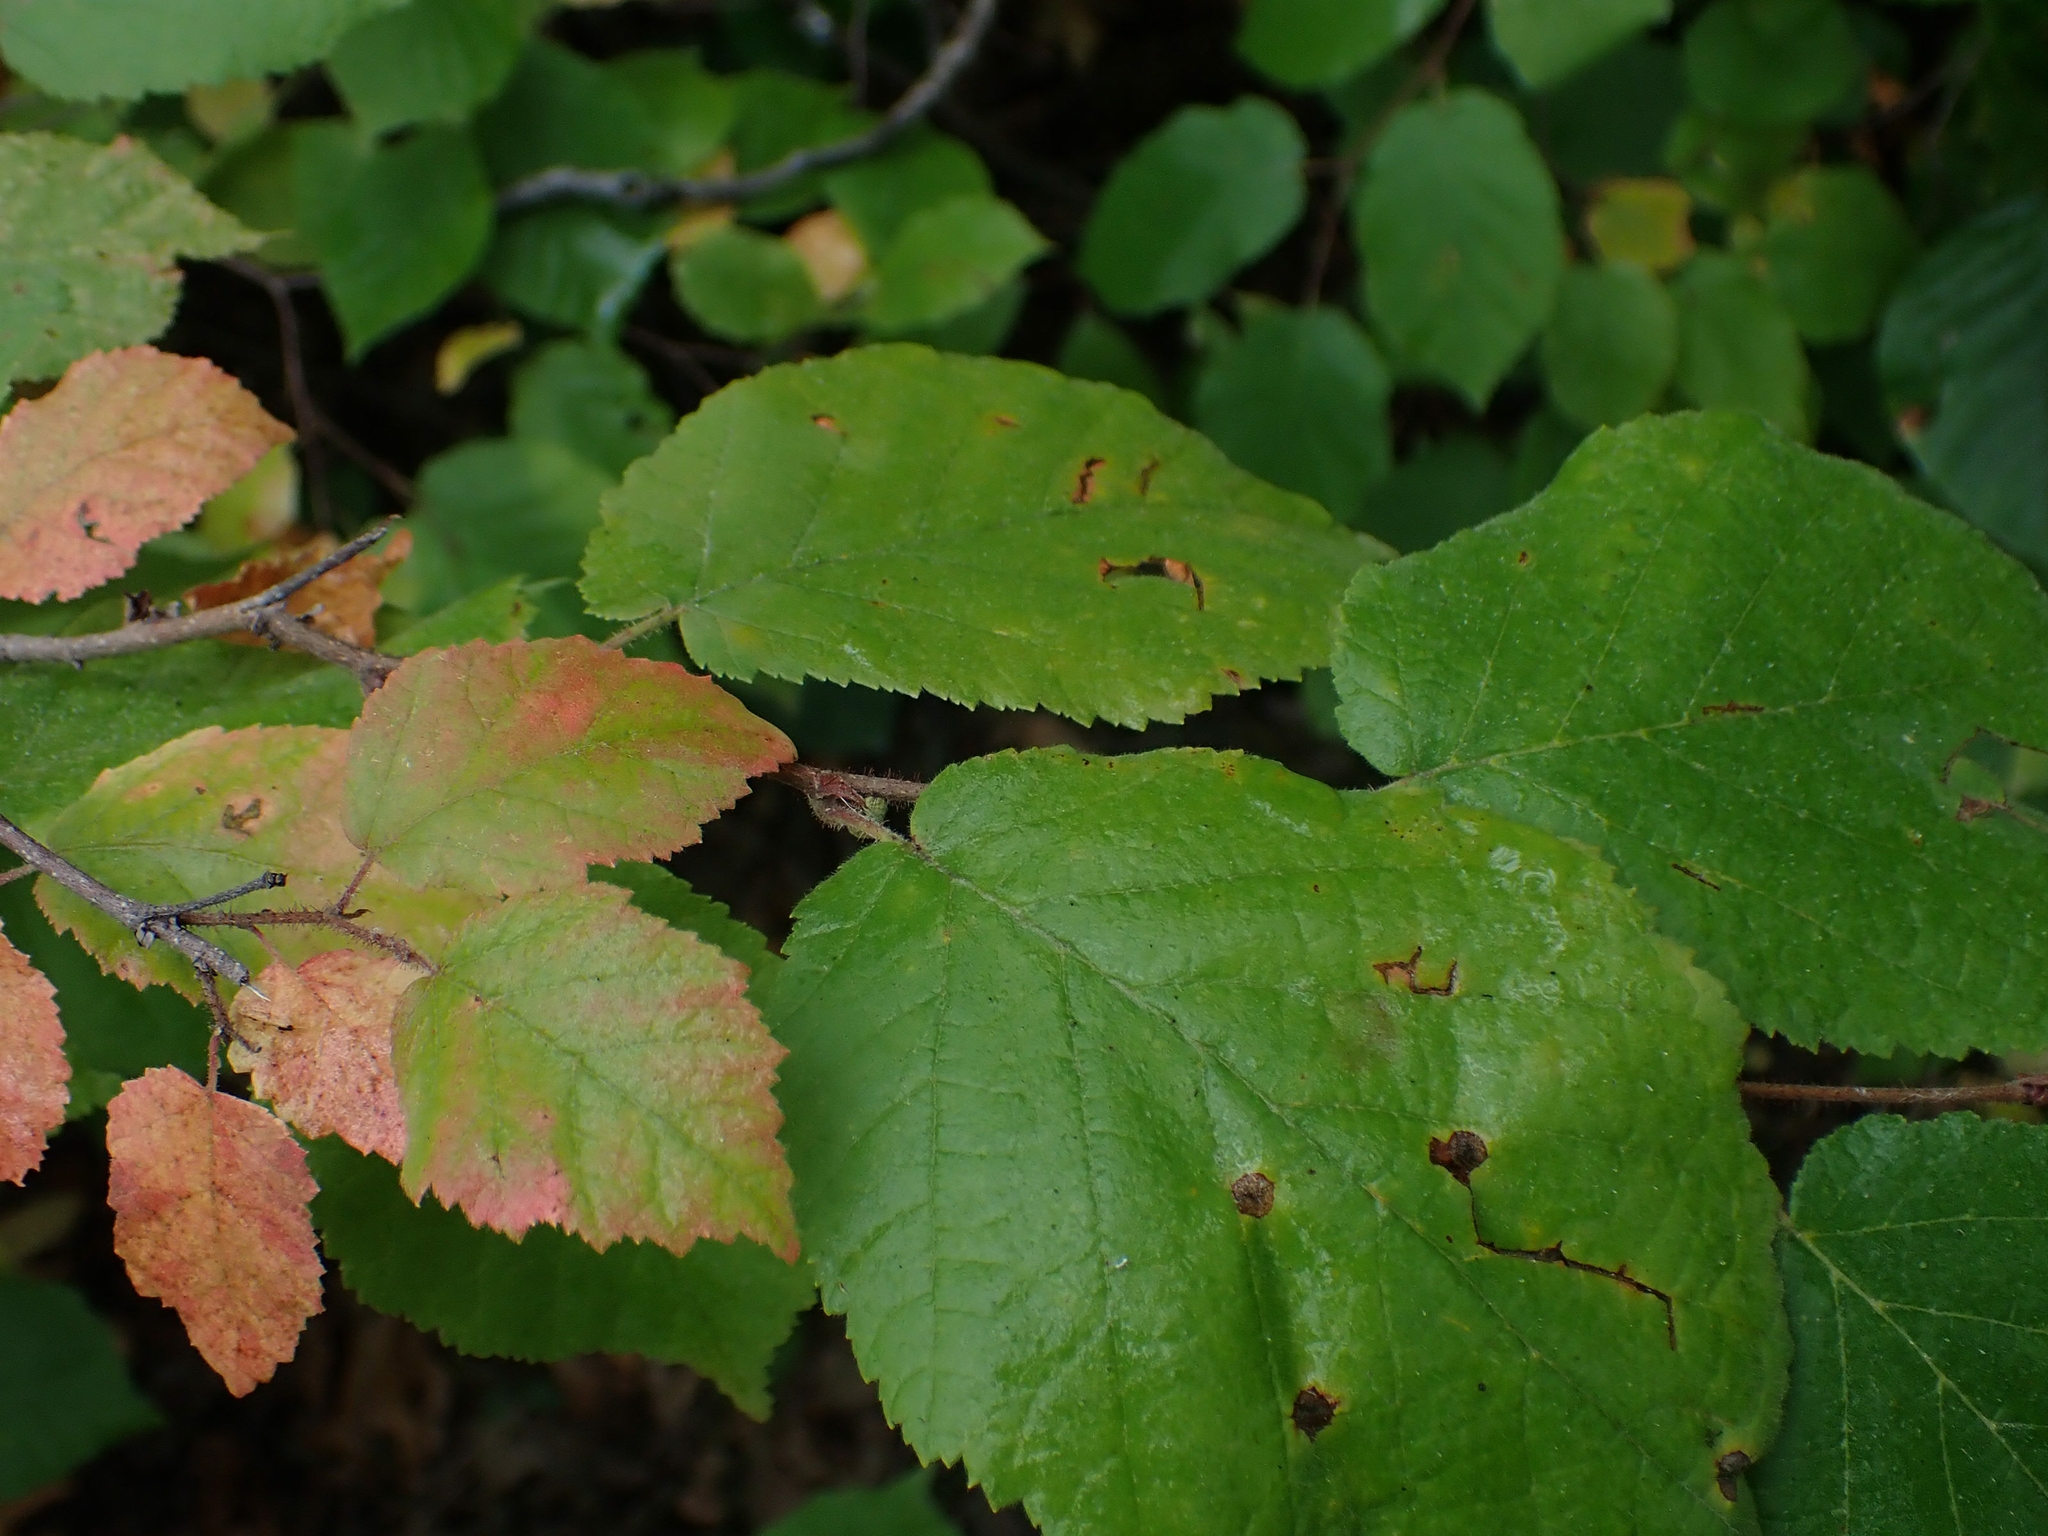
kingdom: Plantae
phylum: Tracheophyta
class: Magnoliopsida
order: Fagales
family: Betulaceae
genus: Corylus
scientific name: Corylus americana
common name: American hazel
